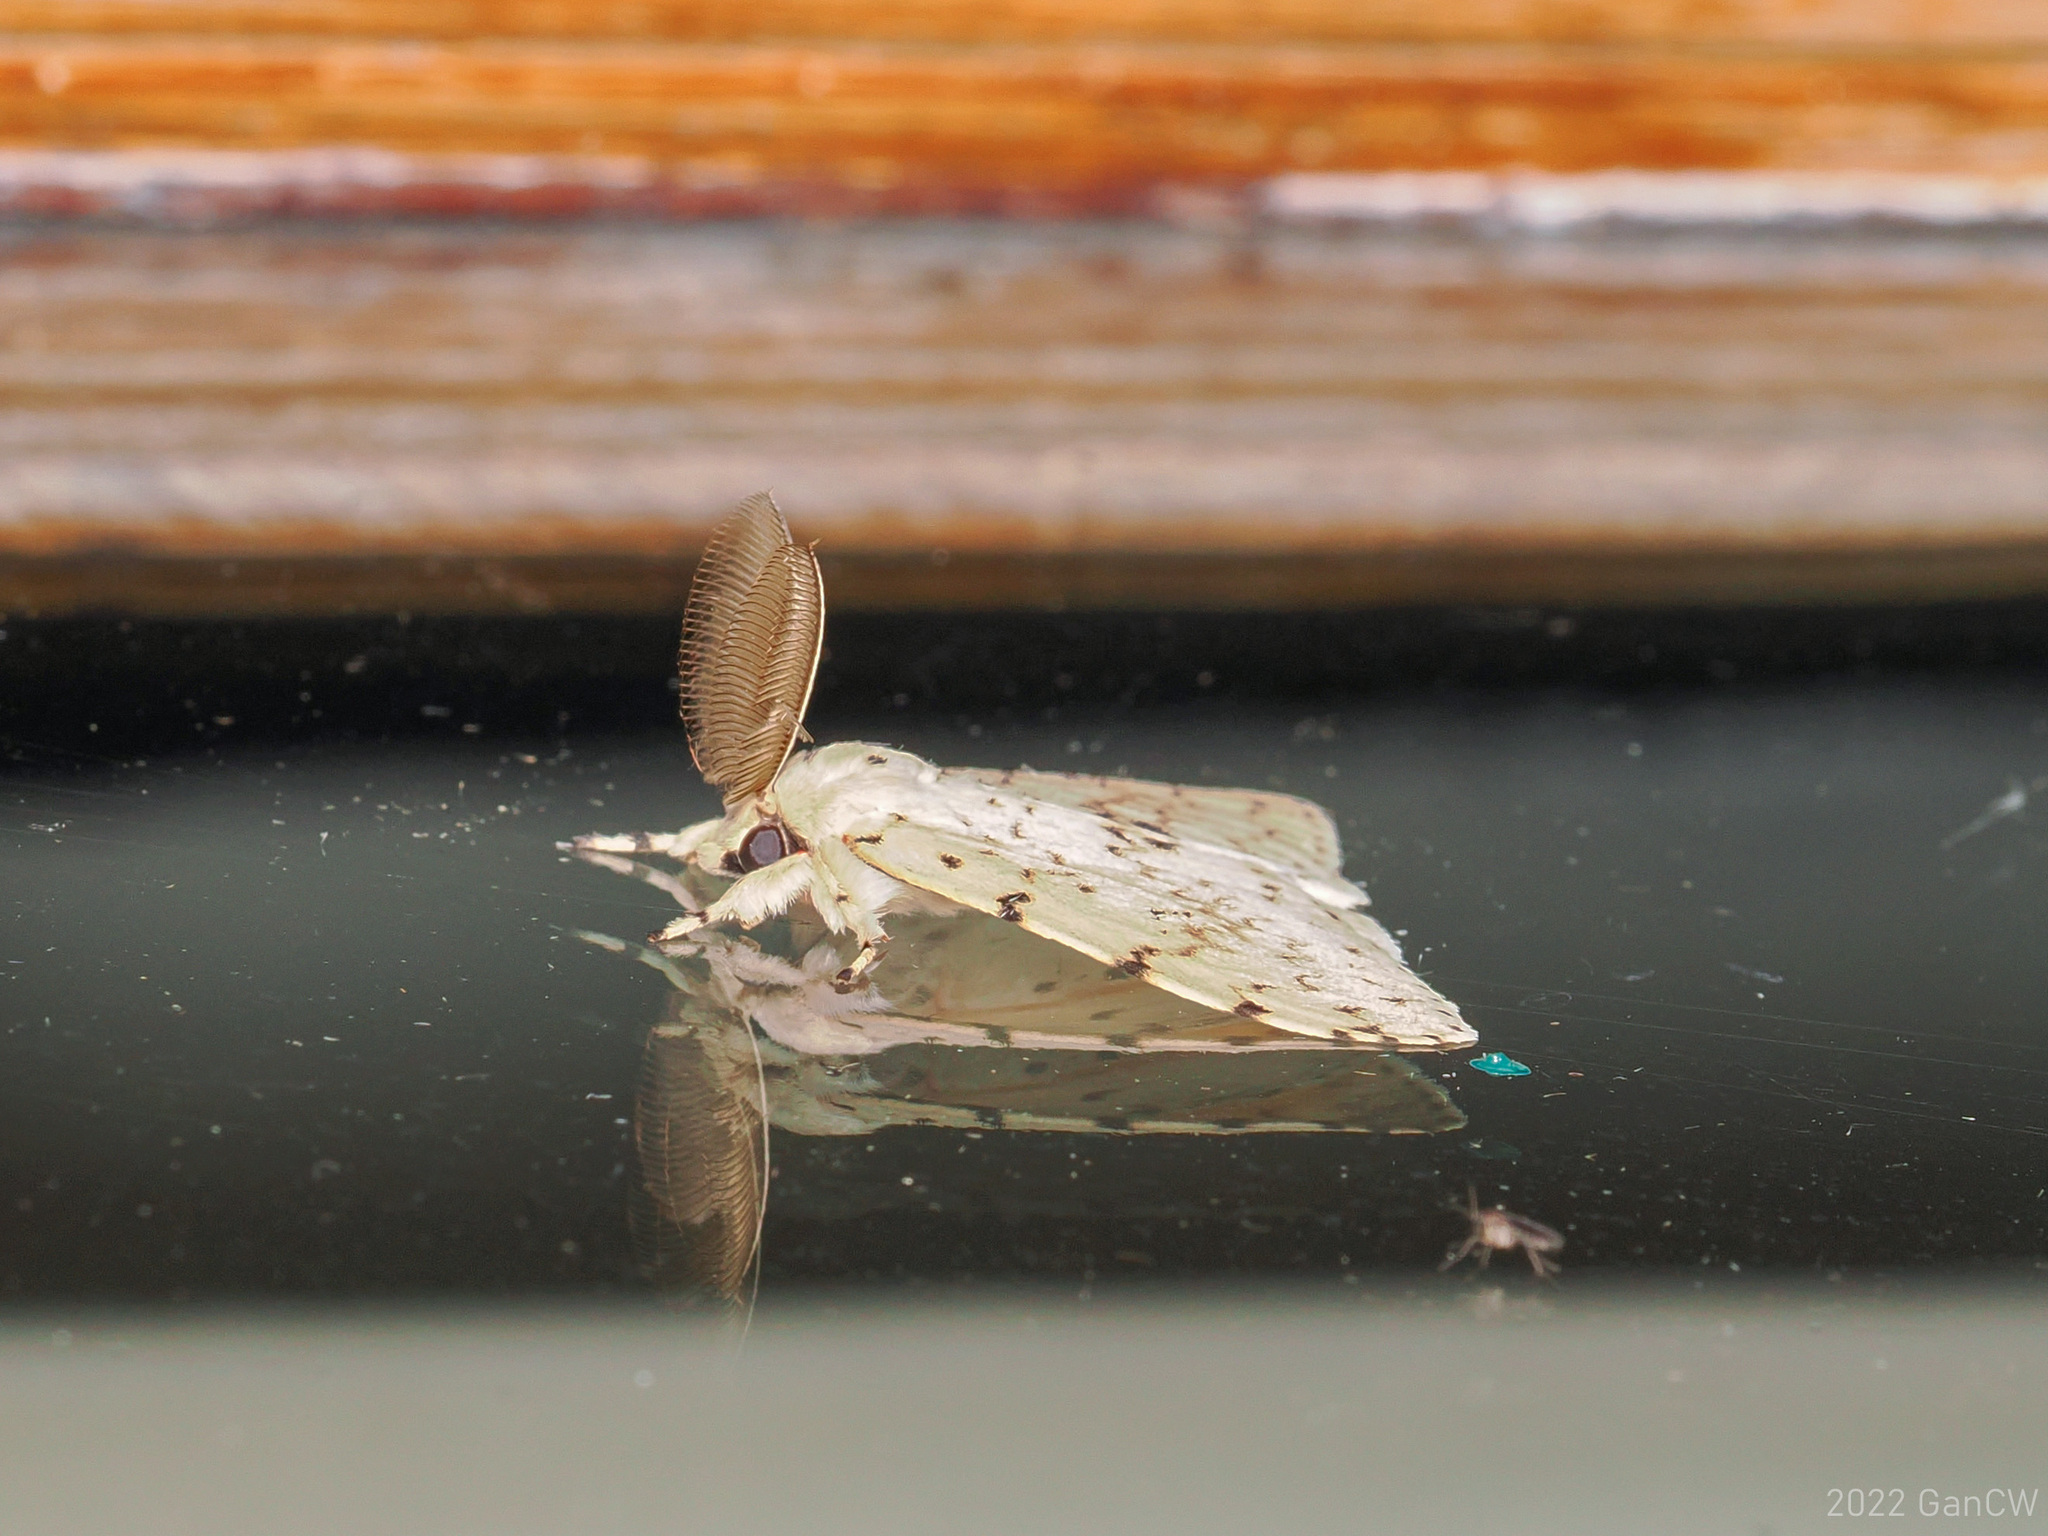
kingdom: Animalia
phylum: Arthropoda
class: Insecta
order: Lepidoptera
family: Erebidae
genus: Lymantria
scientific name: Lymantria ganara
